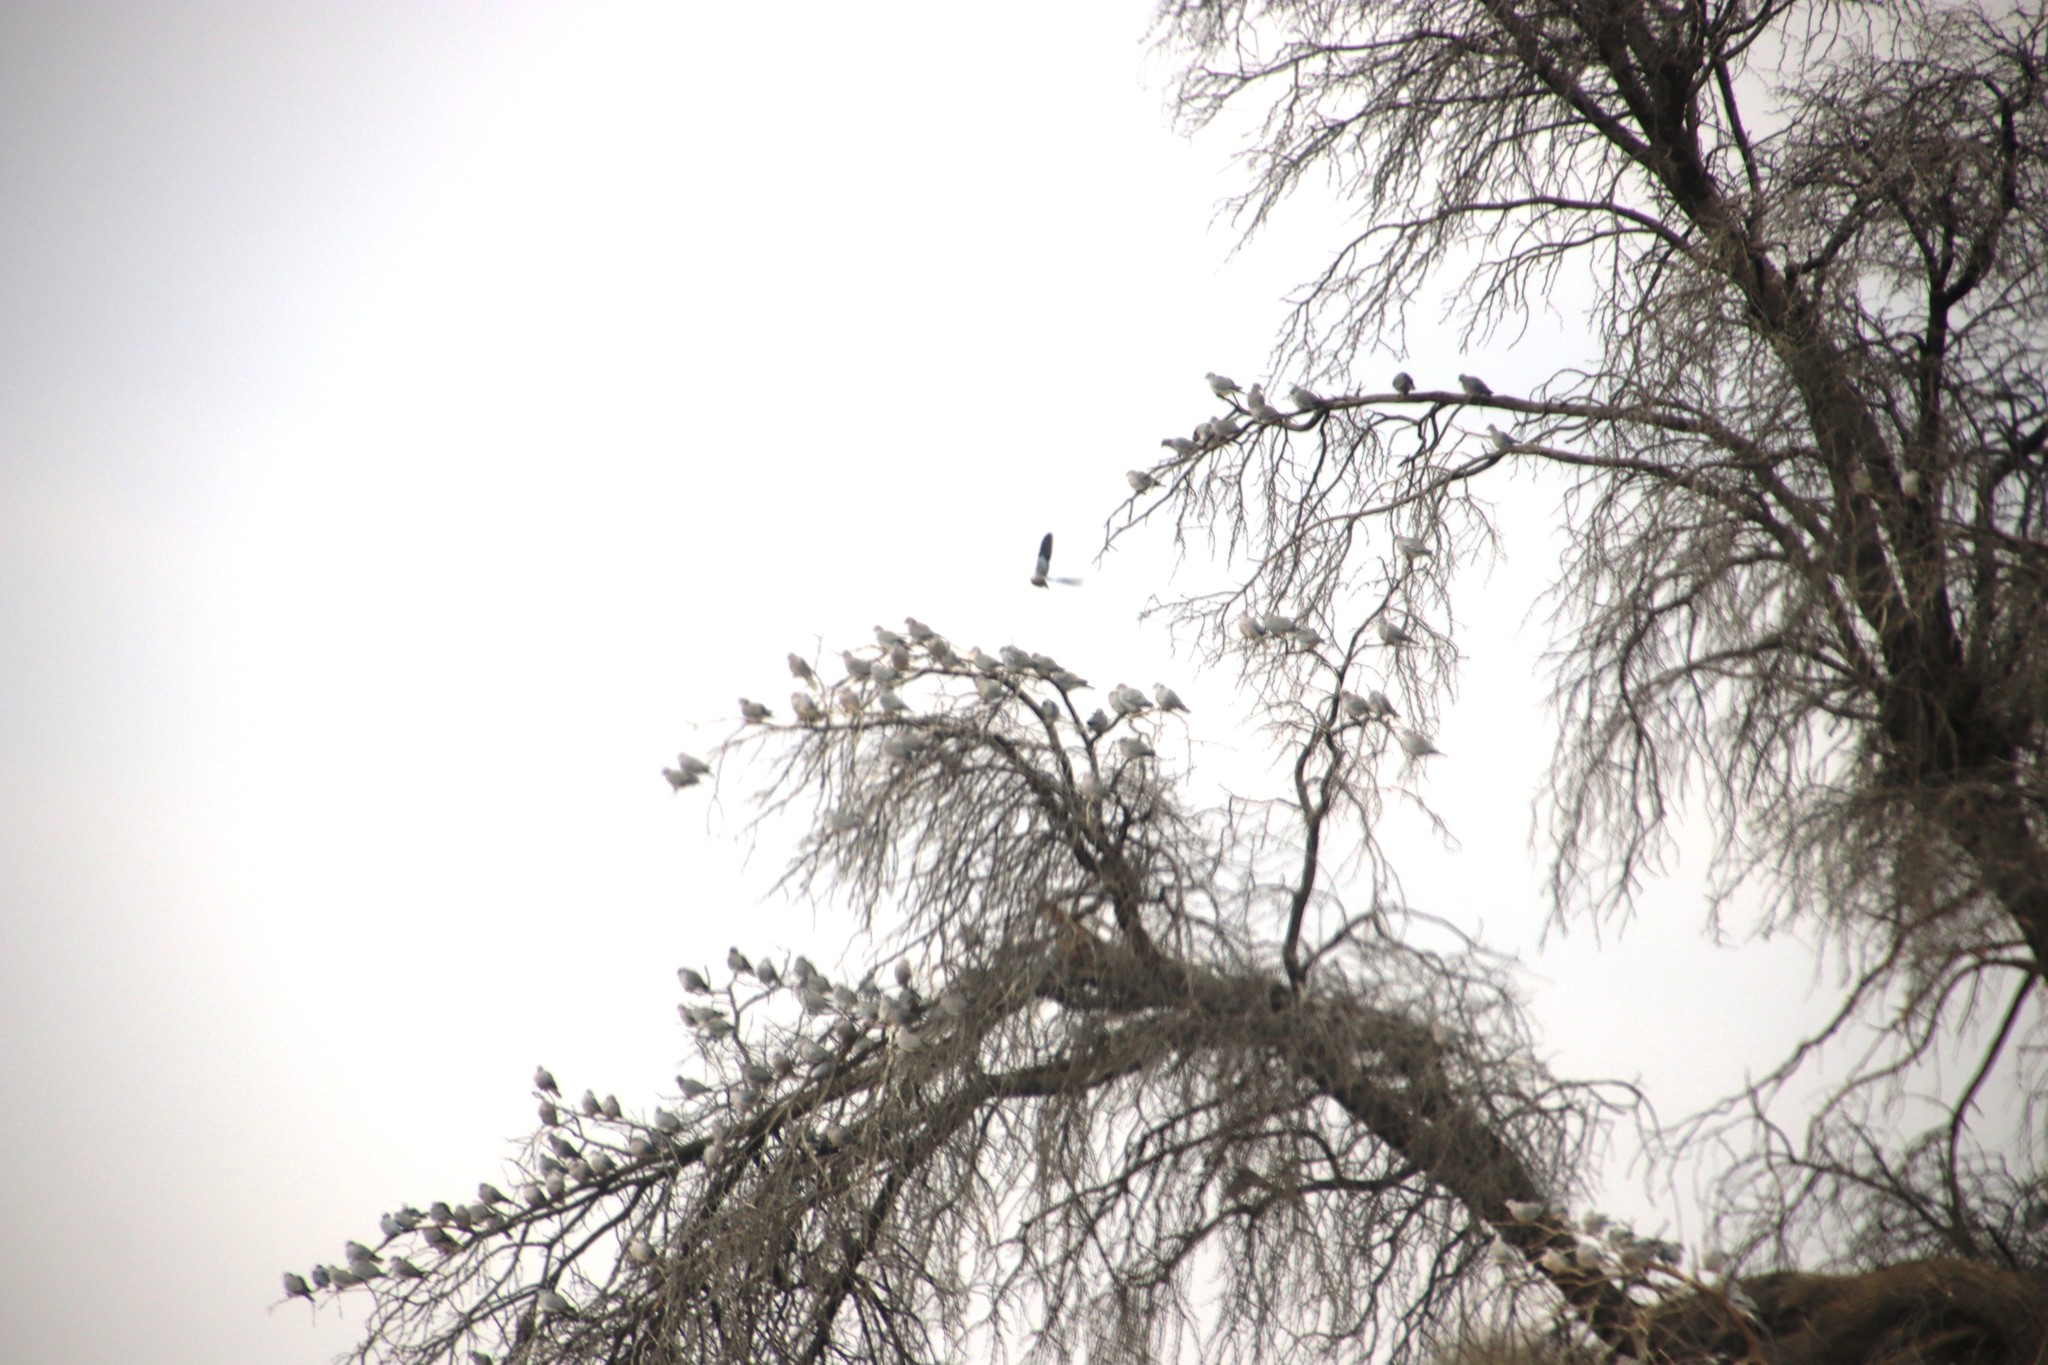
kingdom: Animalia
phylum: Chordata
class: Aves
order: Columbiformes
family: Columbidae
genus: Streptopelia
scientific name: Streptopelia capicola
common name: Ring-necked dove
